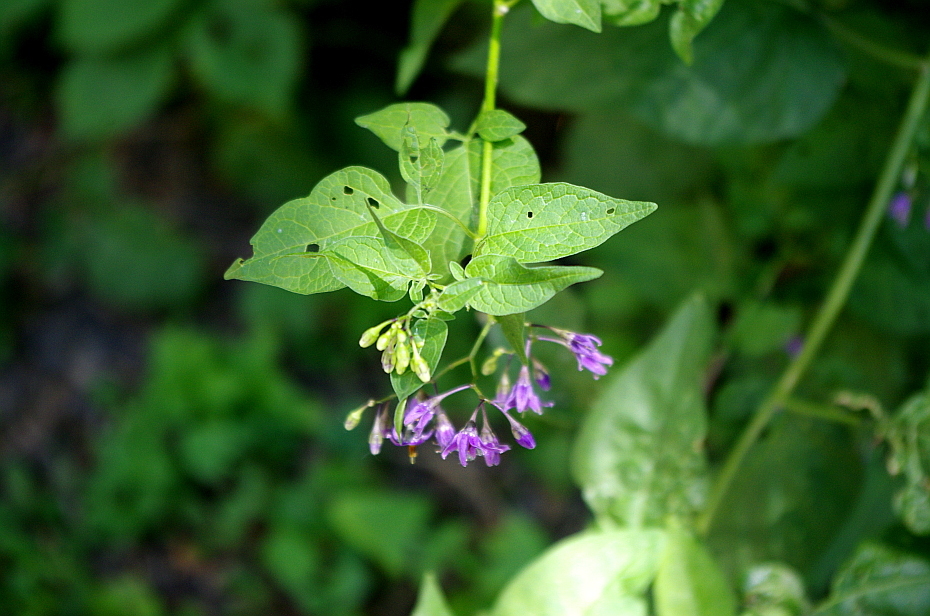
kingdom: Plantae
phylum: Tracheophyta
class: Magnoliopsida
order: Solanales
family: Solanaceae
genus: Solanum
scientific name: Solanum dulcamara
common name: Climbing nightshade
